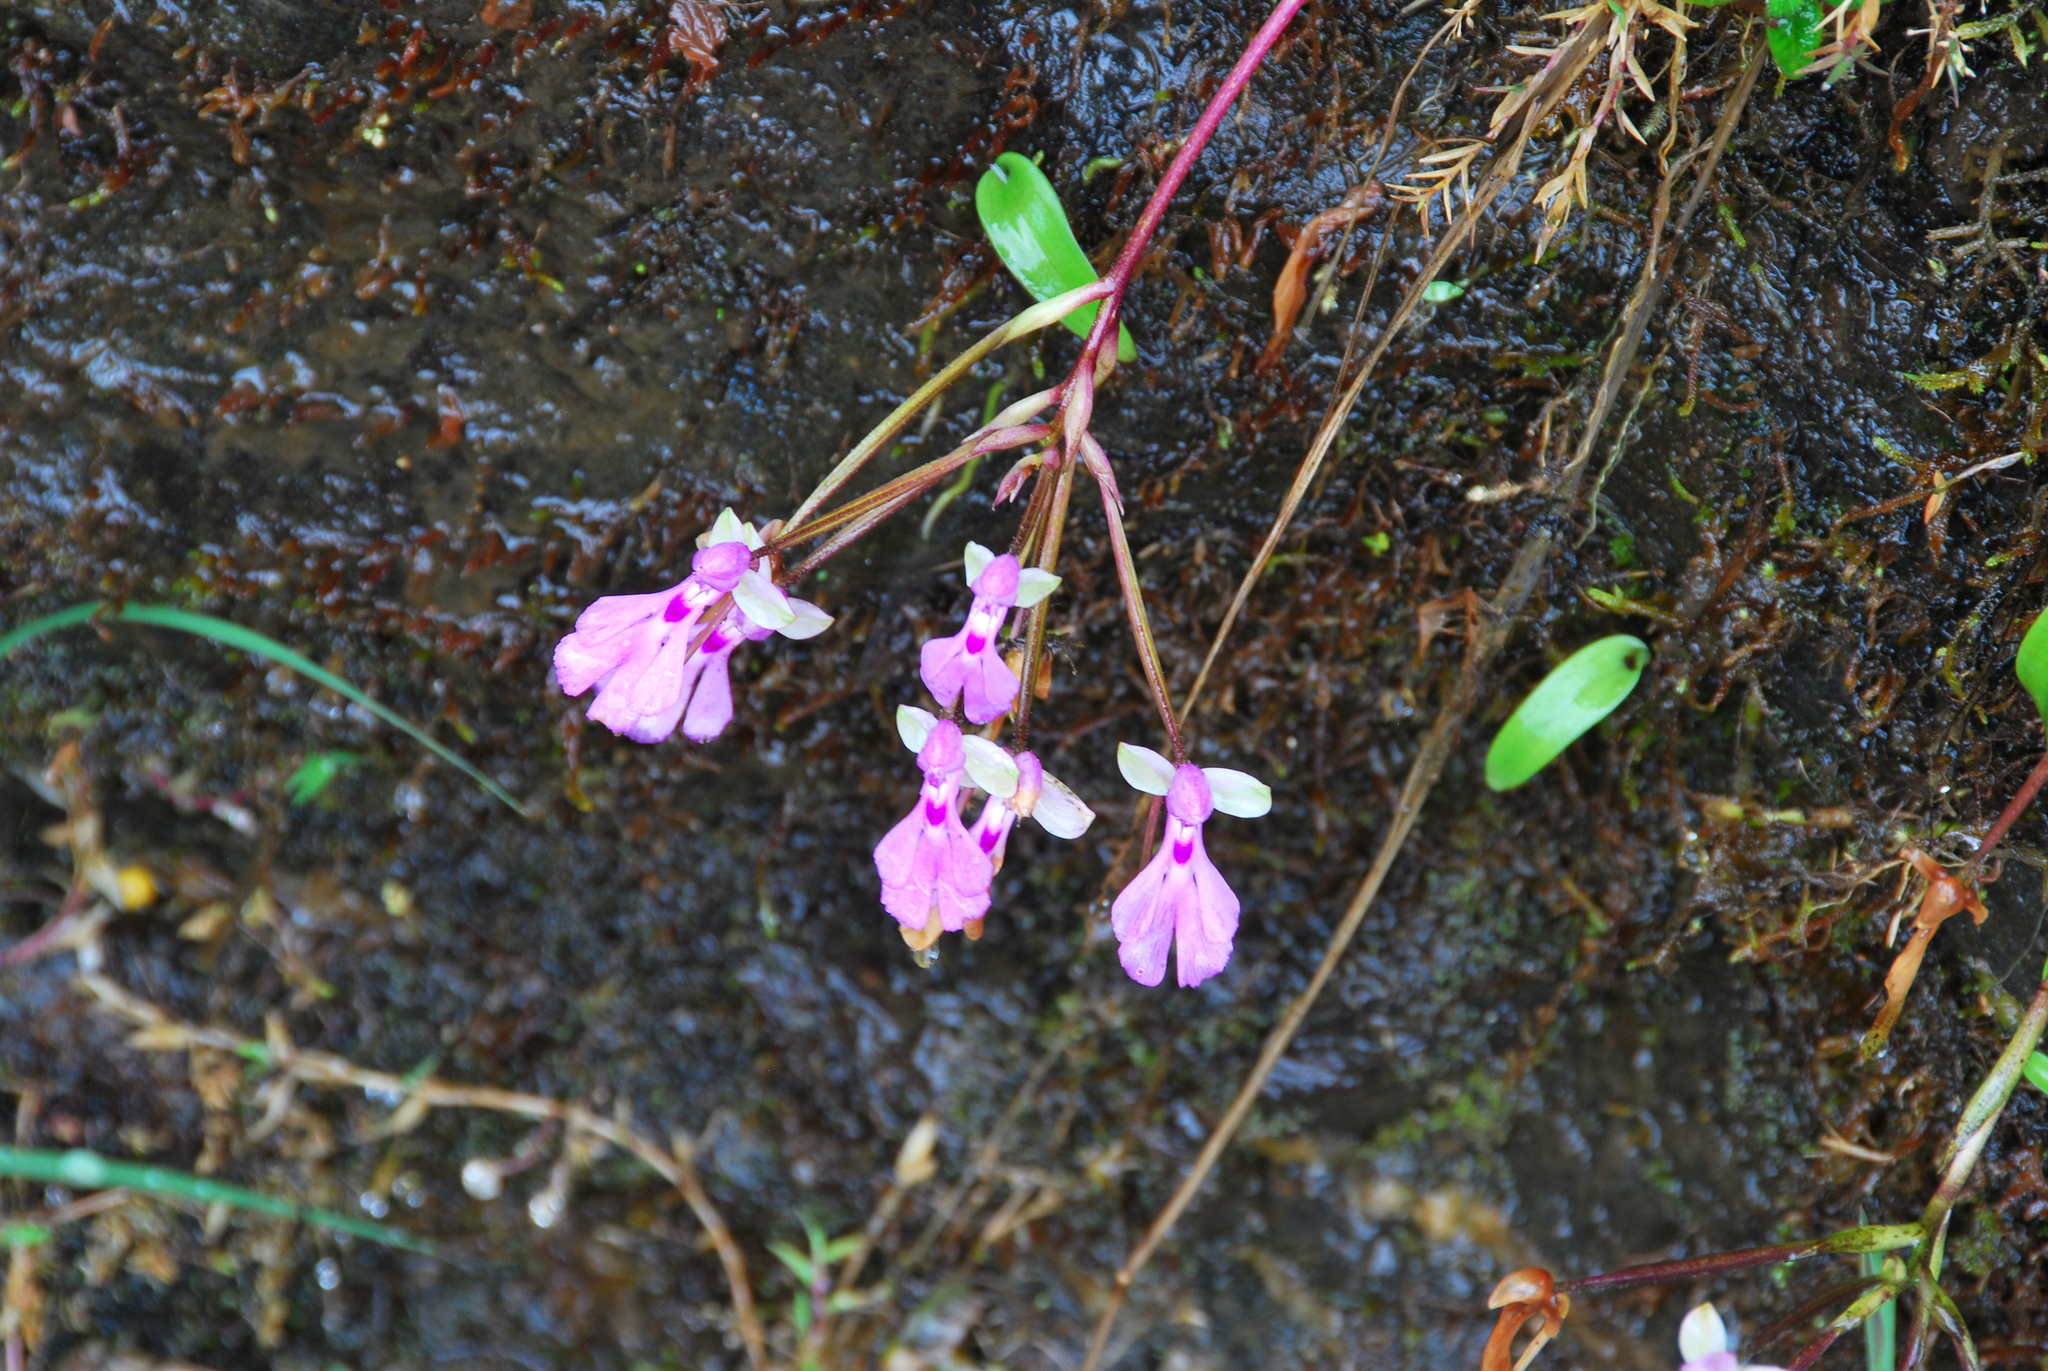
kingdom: Plantae
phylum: Tracheophyta
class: Liliopsida
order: Asparagales
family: Orchidaceae
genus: Cynorkis
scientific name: Cynorkis lowiana
